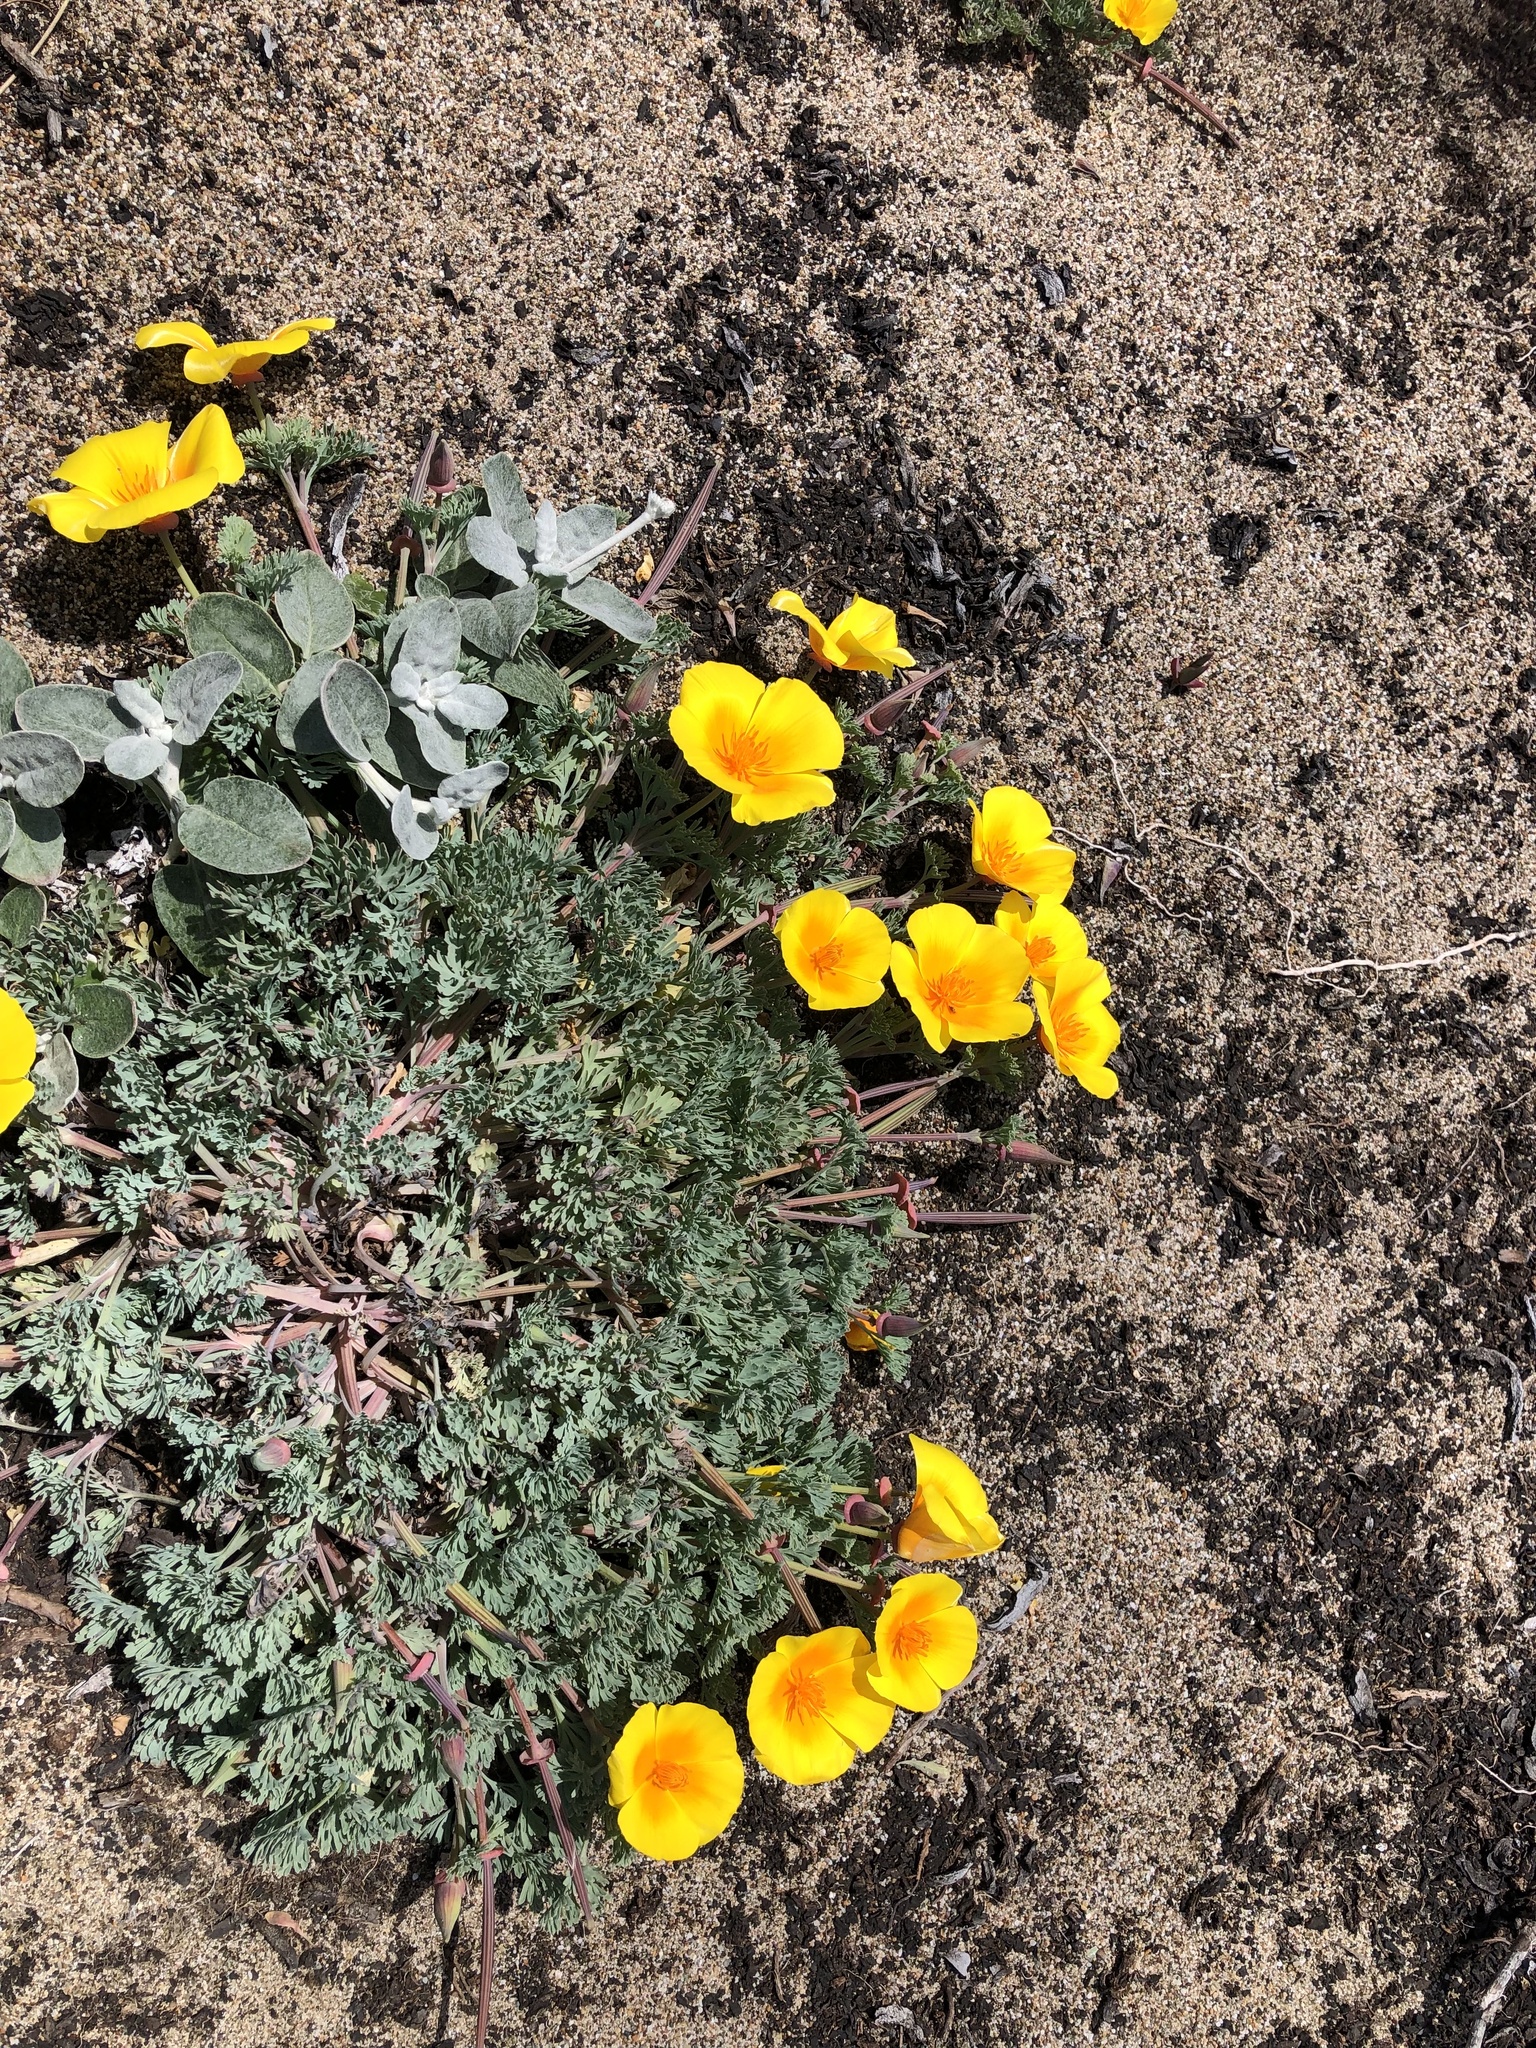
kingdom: Plantae
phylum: Tracheophyta
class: Magnoliopsida
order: Ranunculales
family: Papaveraceae
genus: Eschscholzia
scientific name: Eschscholzia californica
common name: California poppy
